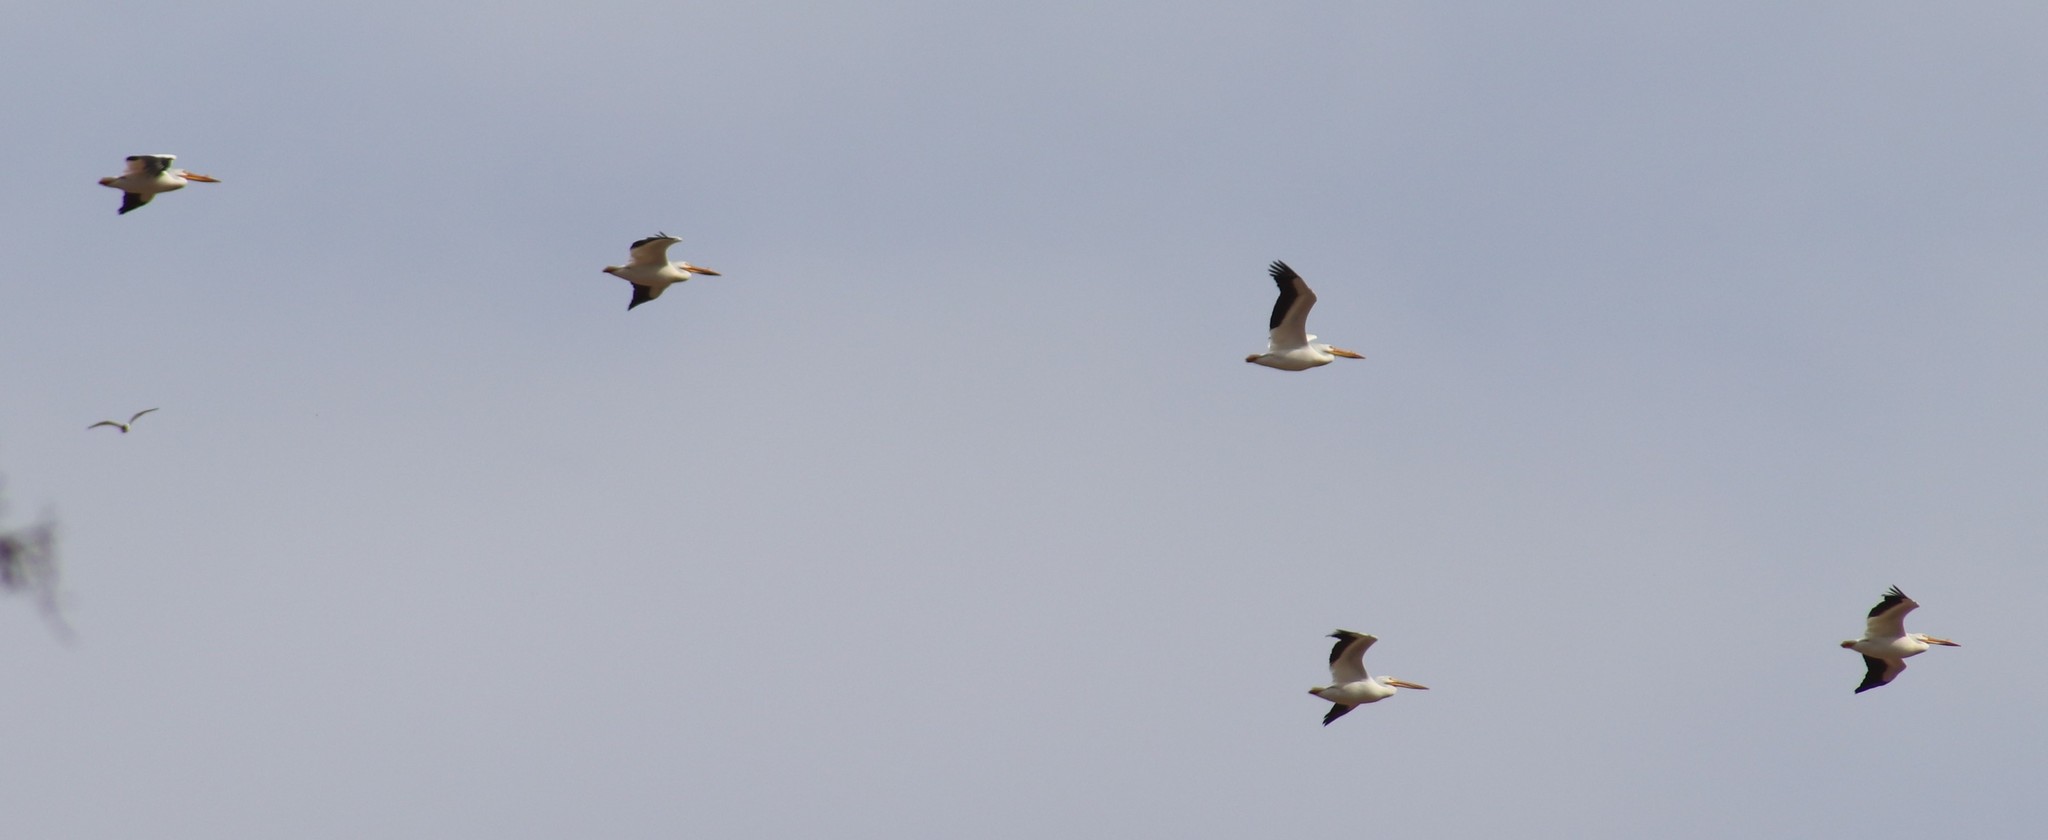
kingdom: Animalia
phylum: Chordata
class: Aves
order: Pelecaniformes
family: Pelecanidae
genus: Pelecanus
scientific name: Pelecanus erythrorhynchos
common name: American white pelican
